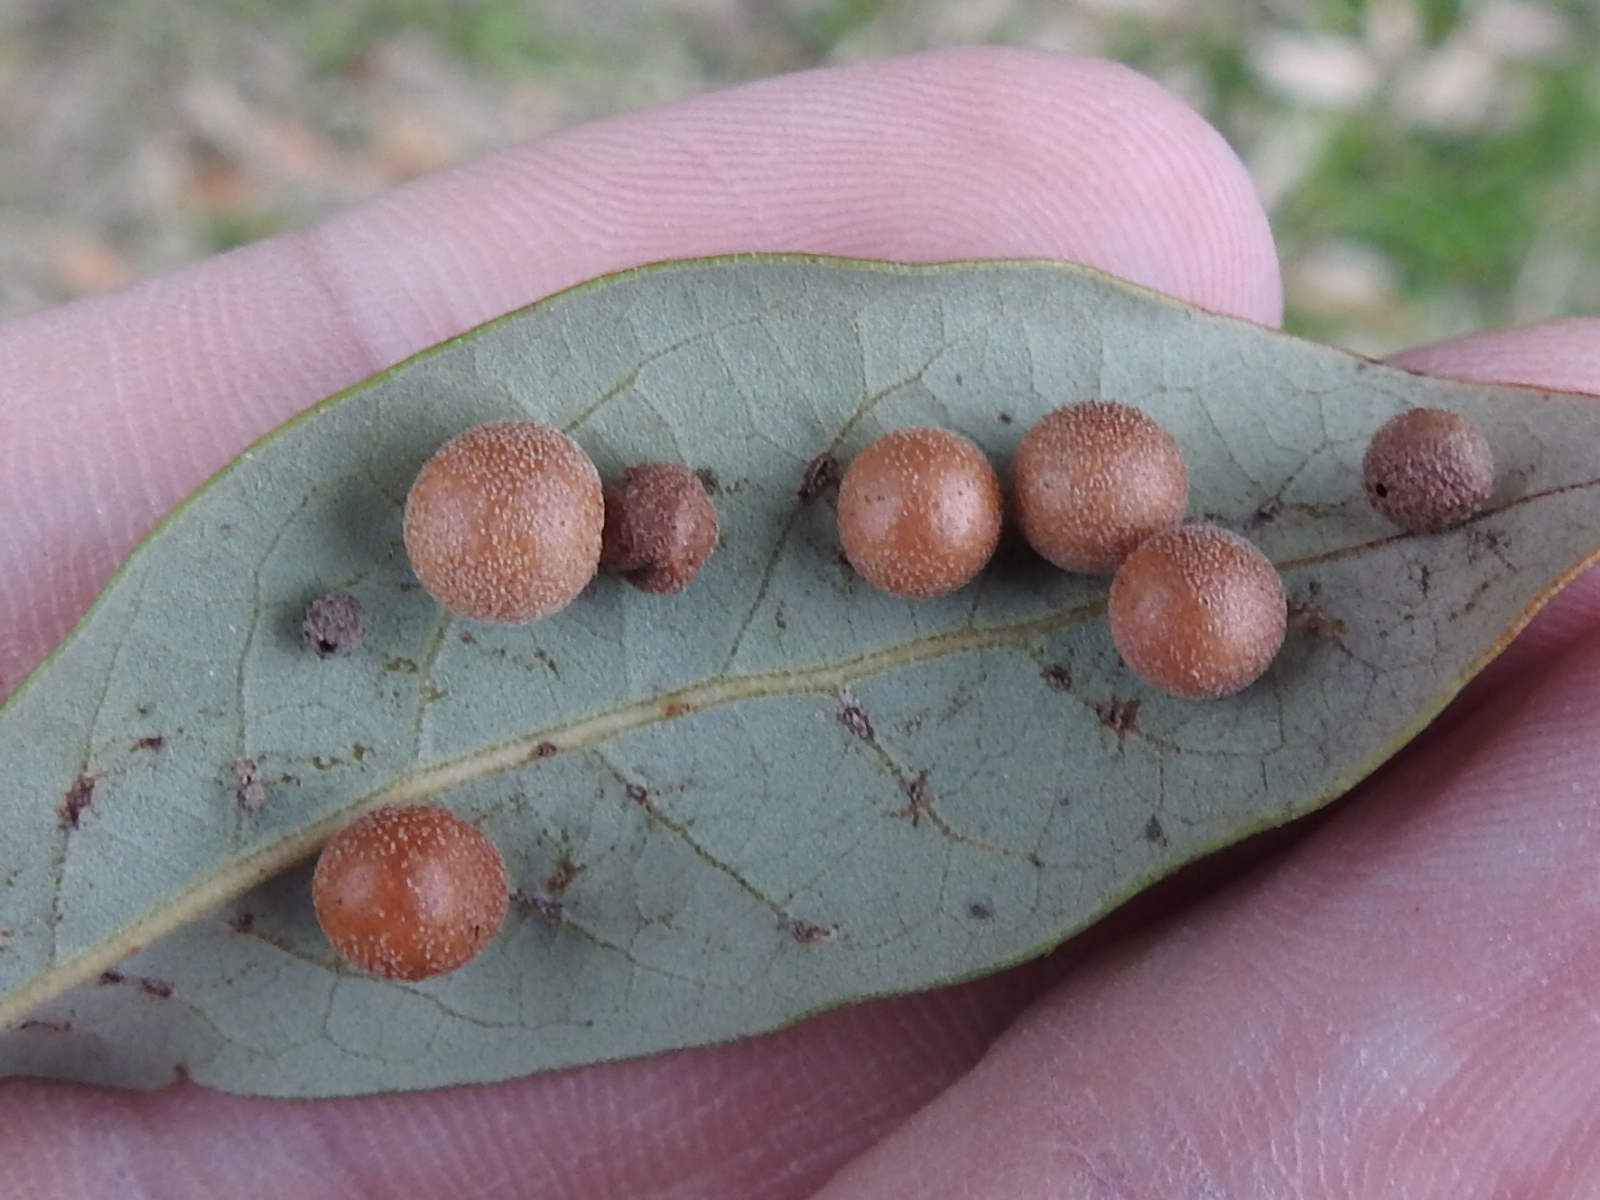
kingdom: Animalia
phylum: Arthropoda
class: Insecta
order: Hymenoptera
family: Cynipidae
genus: Belonocnema
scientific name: Belonocnema kinseyi
